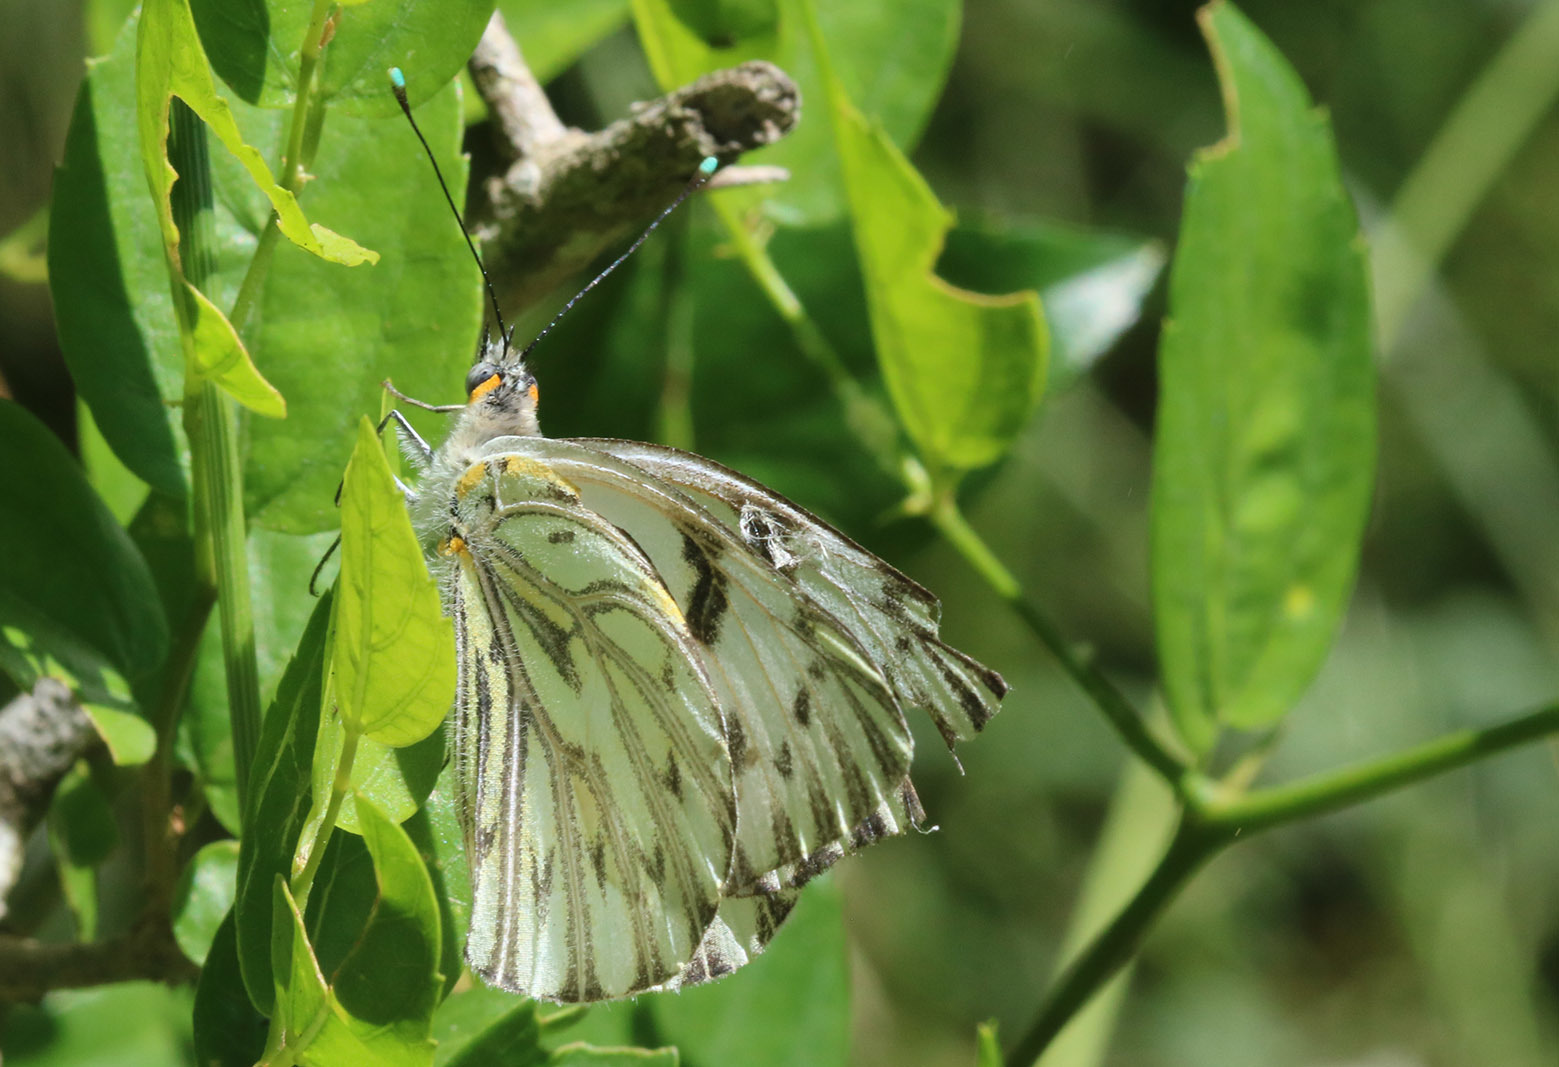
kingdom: Animalia
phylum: Arthropoda
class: Insecta
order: Lepidoptera
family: Pieridae
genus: Tatochila
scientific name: Tatochila autodice
